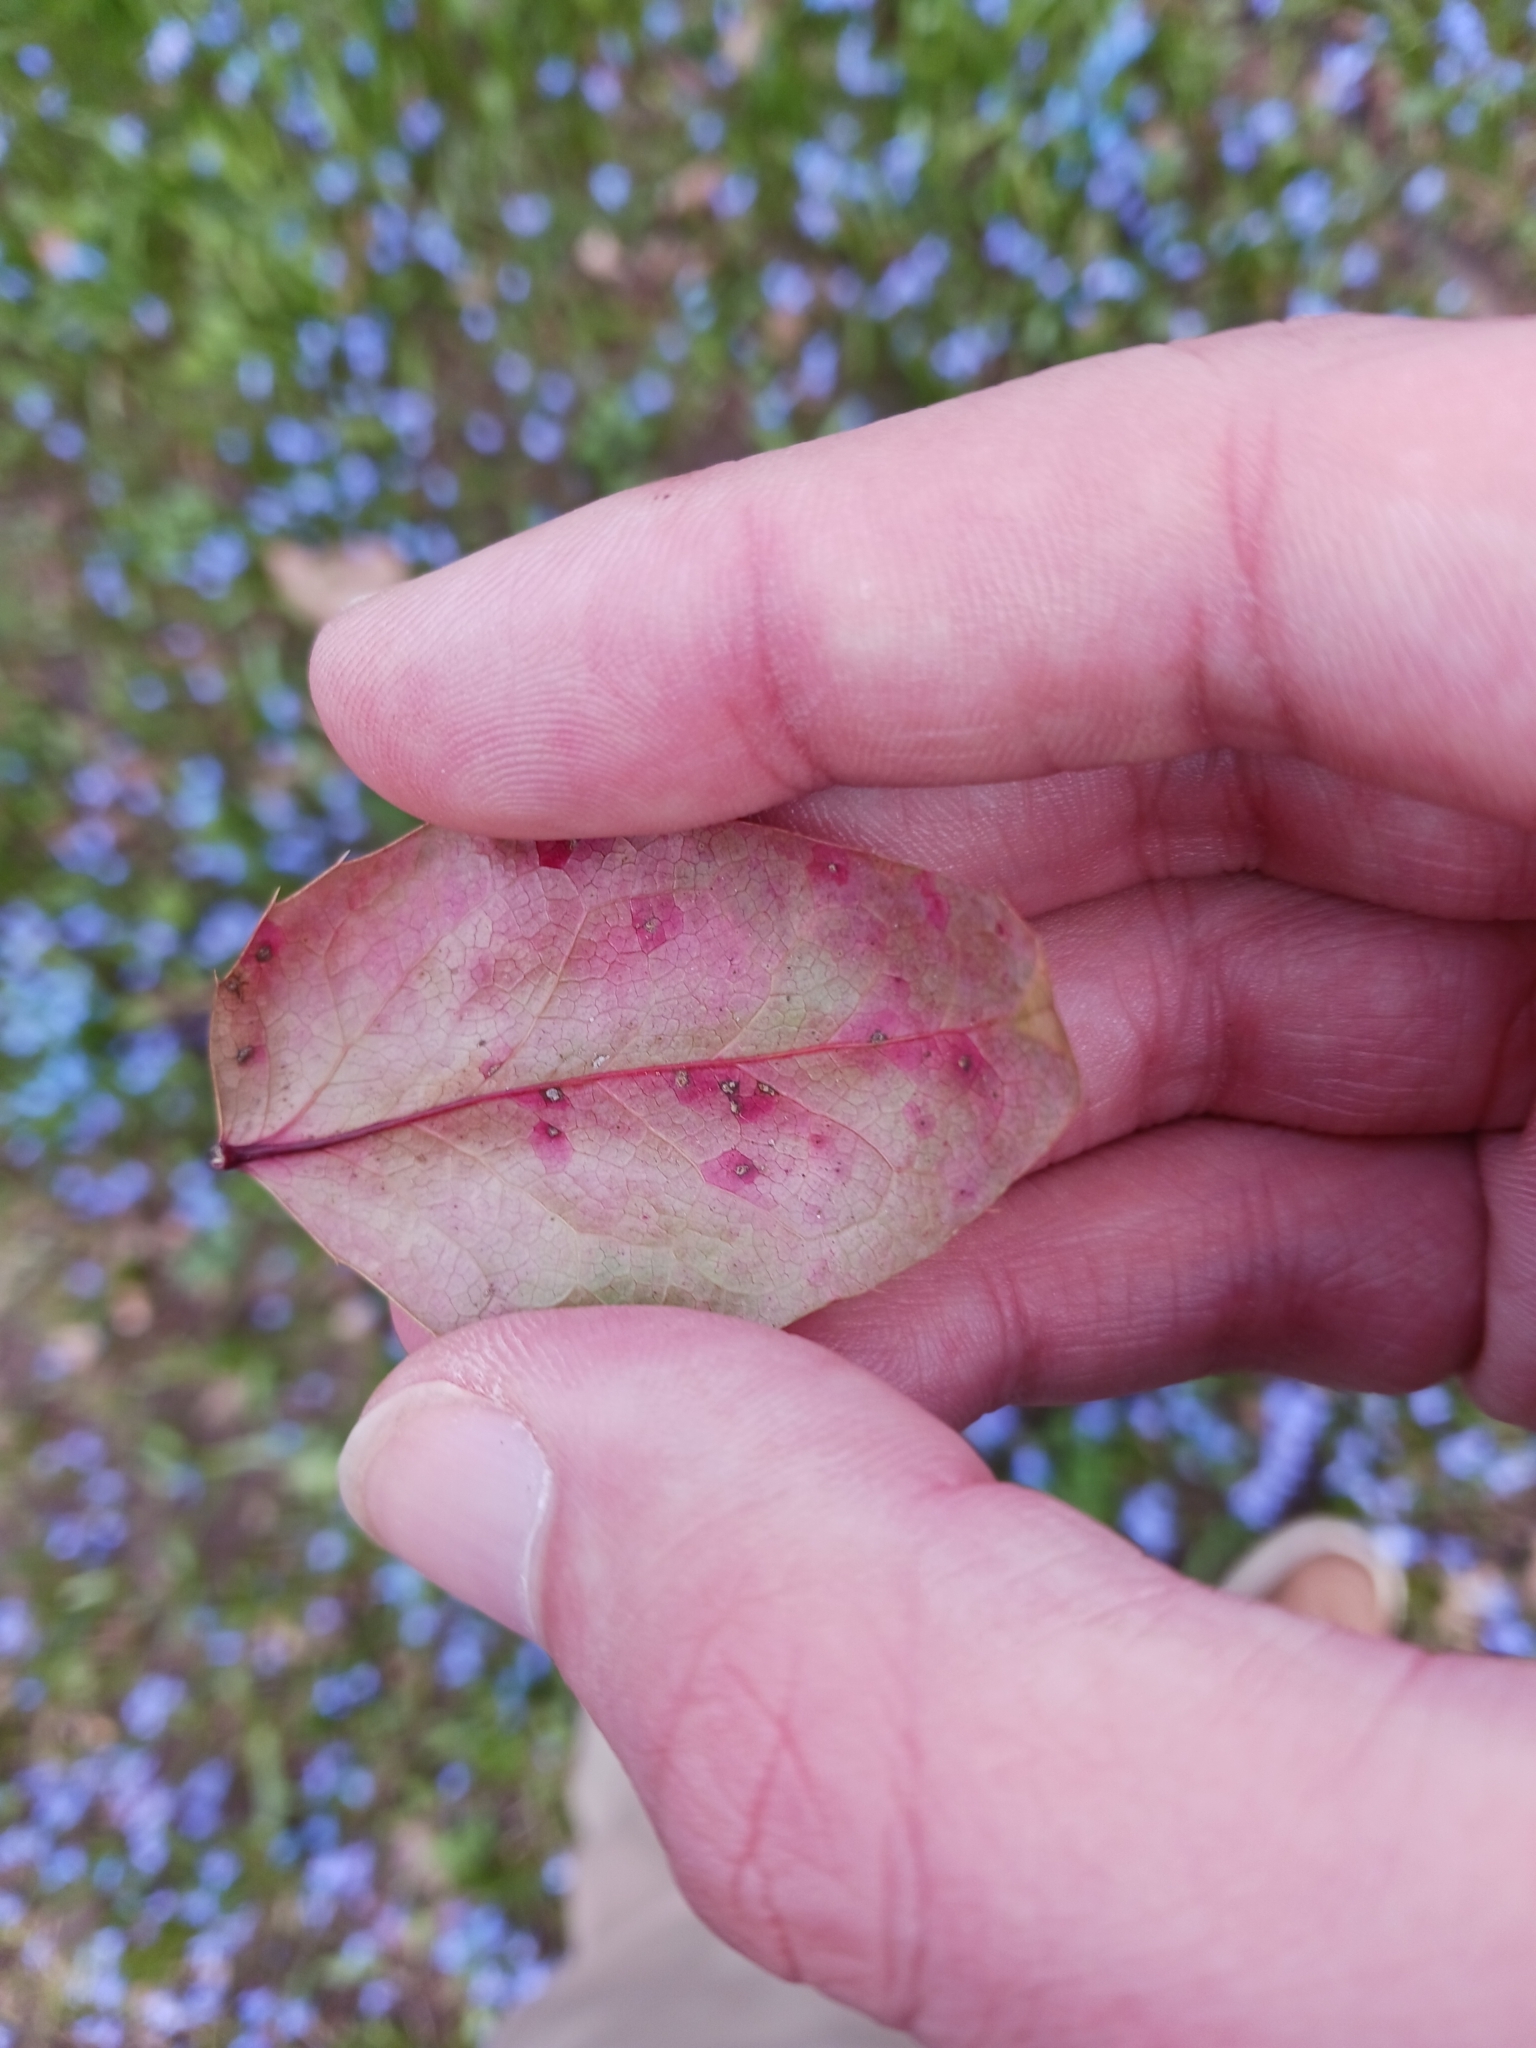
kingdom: Fungi
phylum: Basidiomycota
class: Pucciniomycetes
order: Pucciniales
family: Pucciniaceae
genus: Cumminsiella
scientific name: Cumminsiella mirabilissima
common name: Mahonia rust
